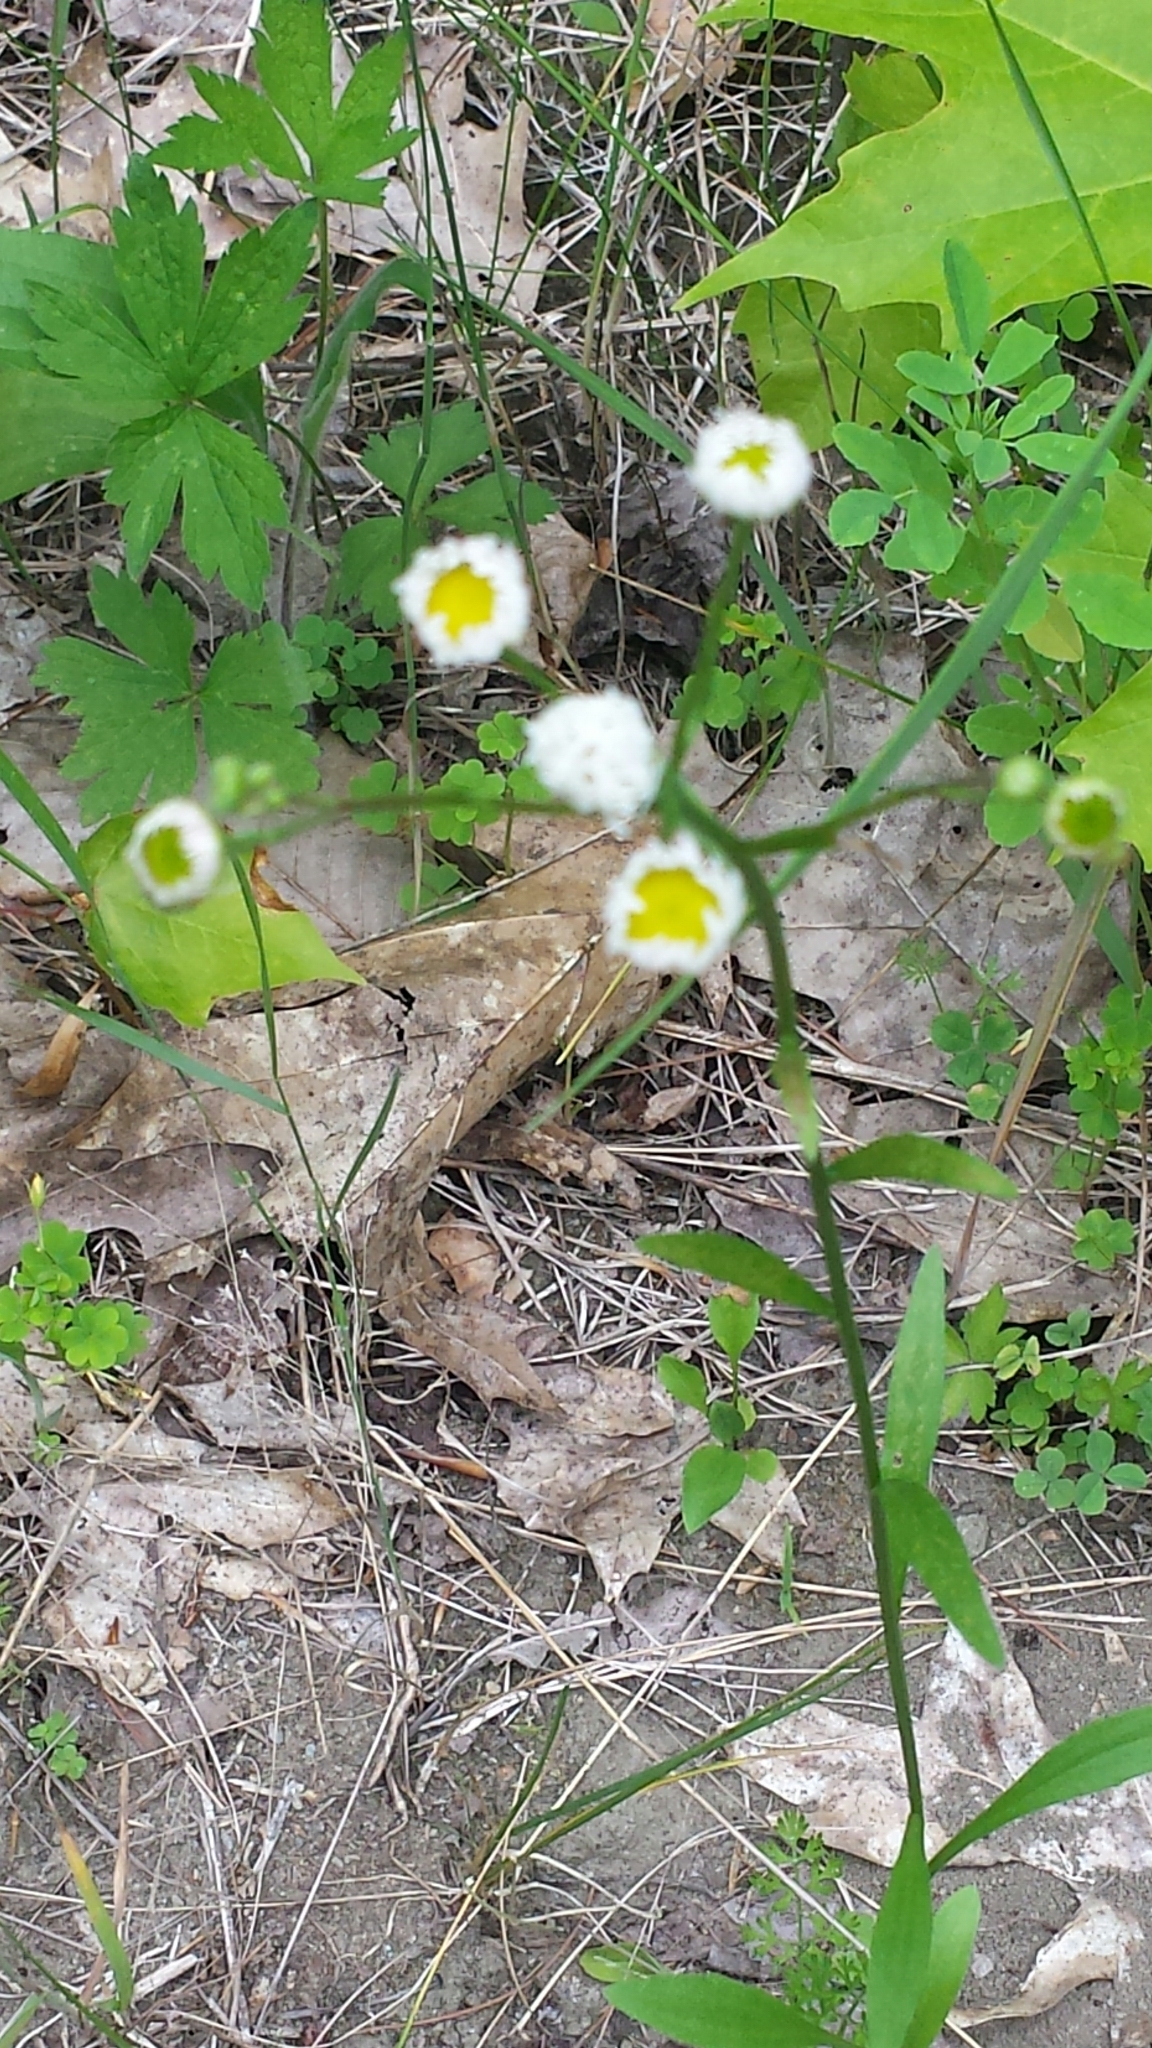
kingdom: Plantae
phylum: Tracheophyta
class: Magnoliopsida
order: Asterales
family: Asteraceae
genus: Erigeron
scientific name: Erigeron strigosus
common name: Common eastern fleabane
